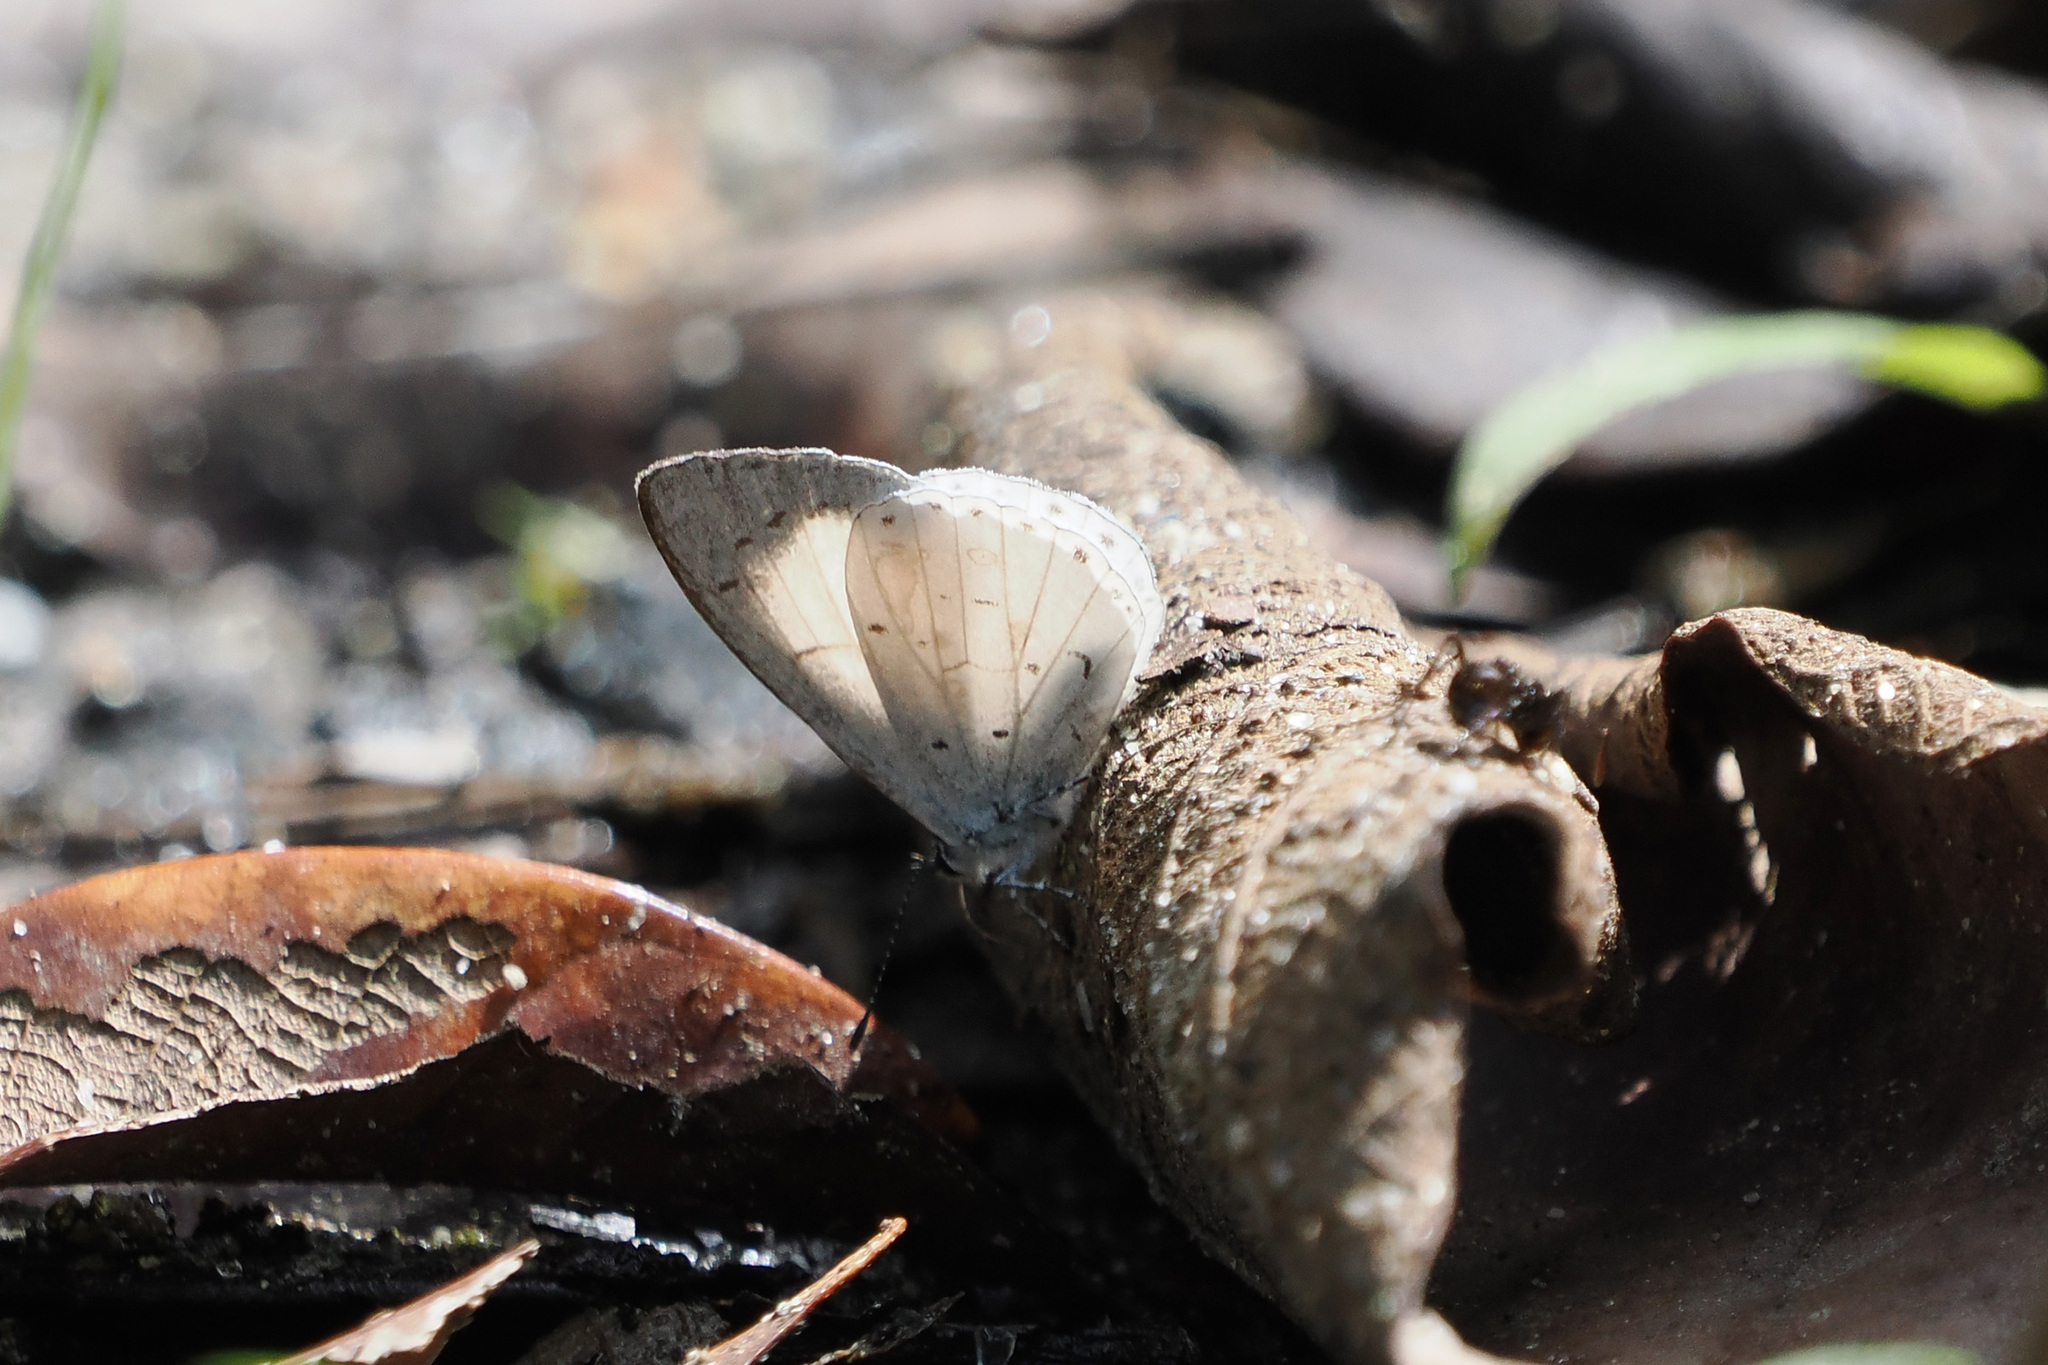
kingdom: Animalia
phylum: Arthropoda
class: Insecta
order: Lepidoptera
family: Lycaenidae
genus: Udara
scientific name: Udara akasa
